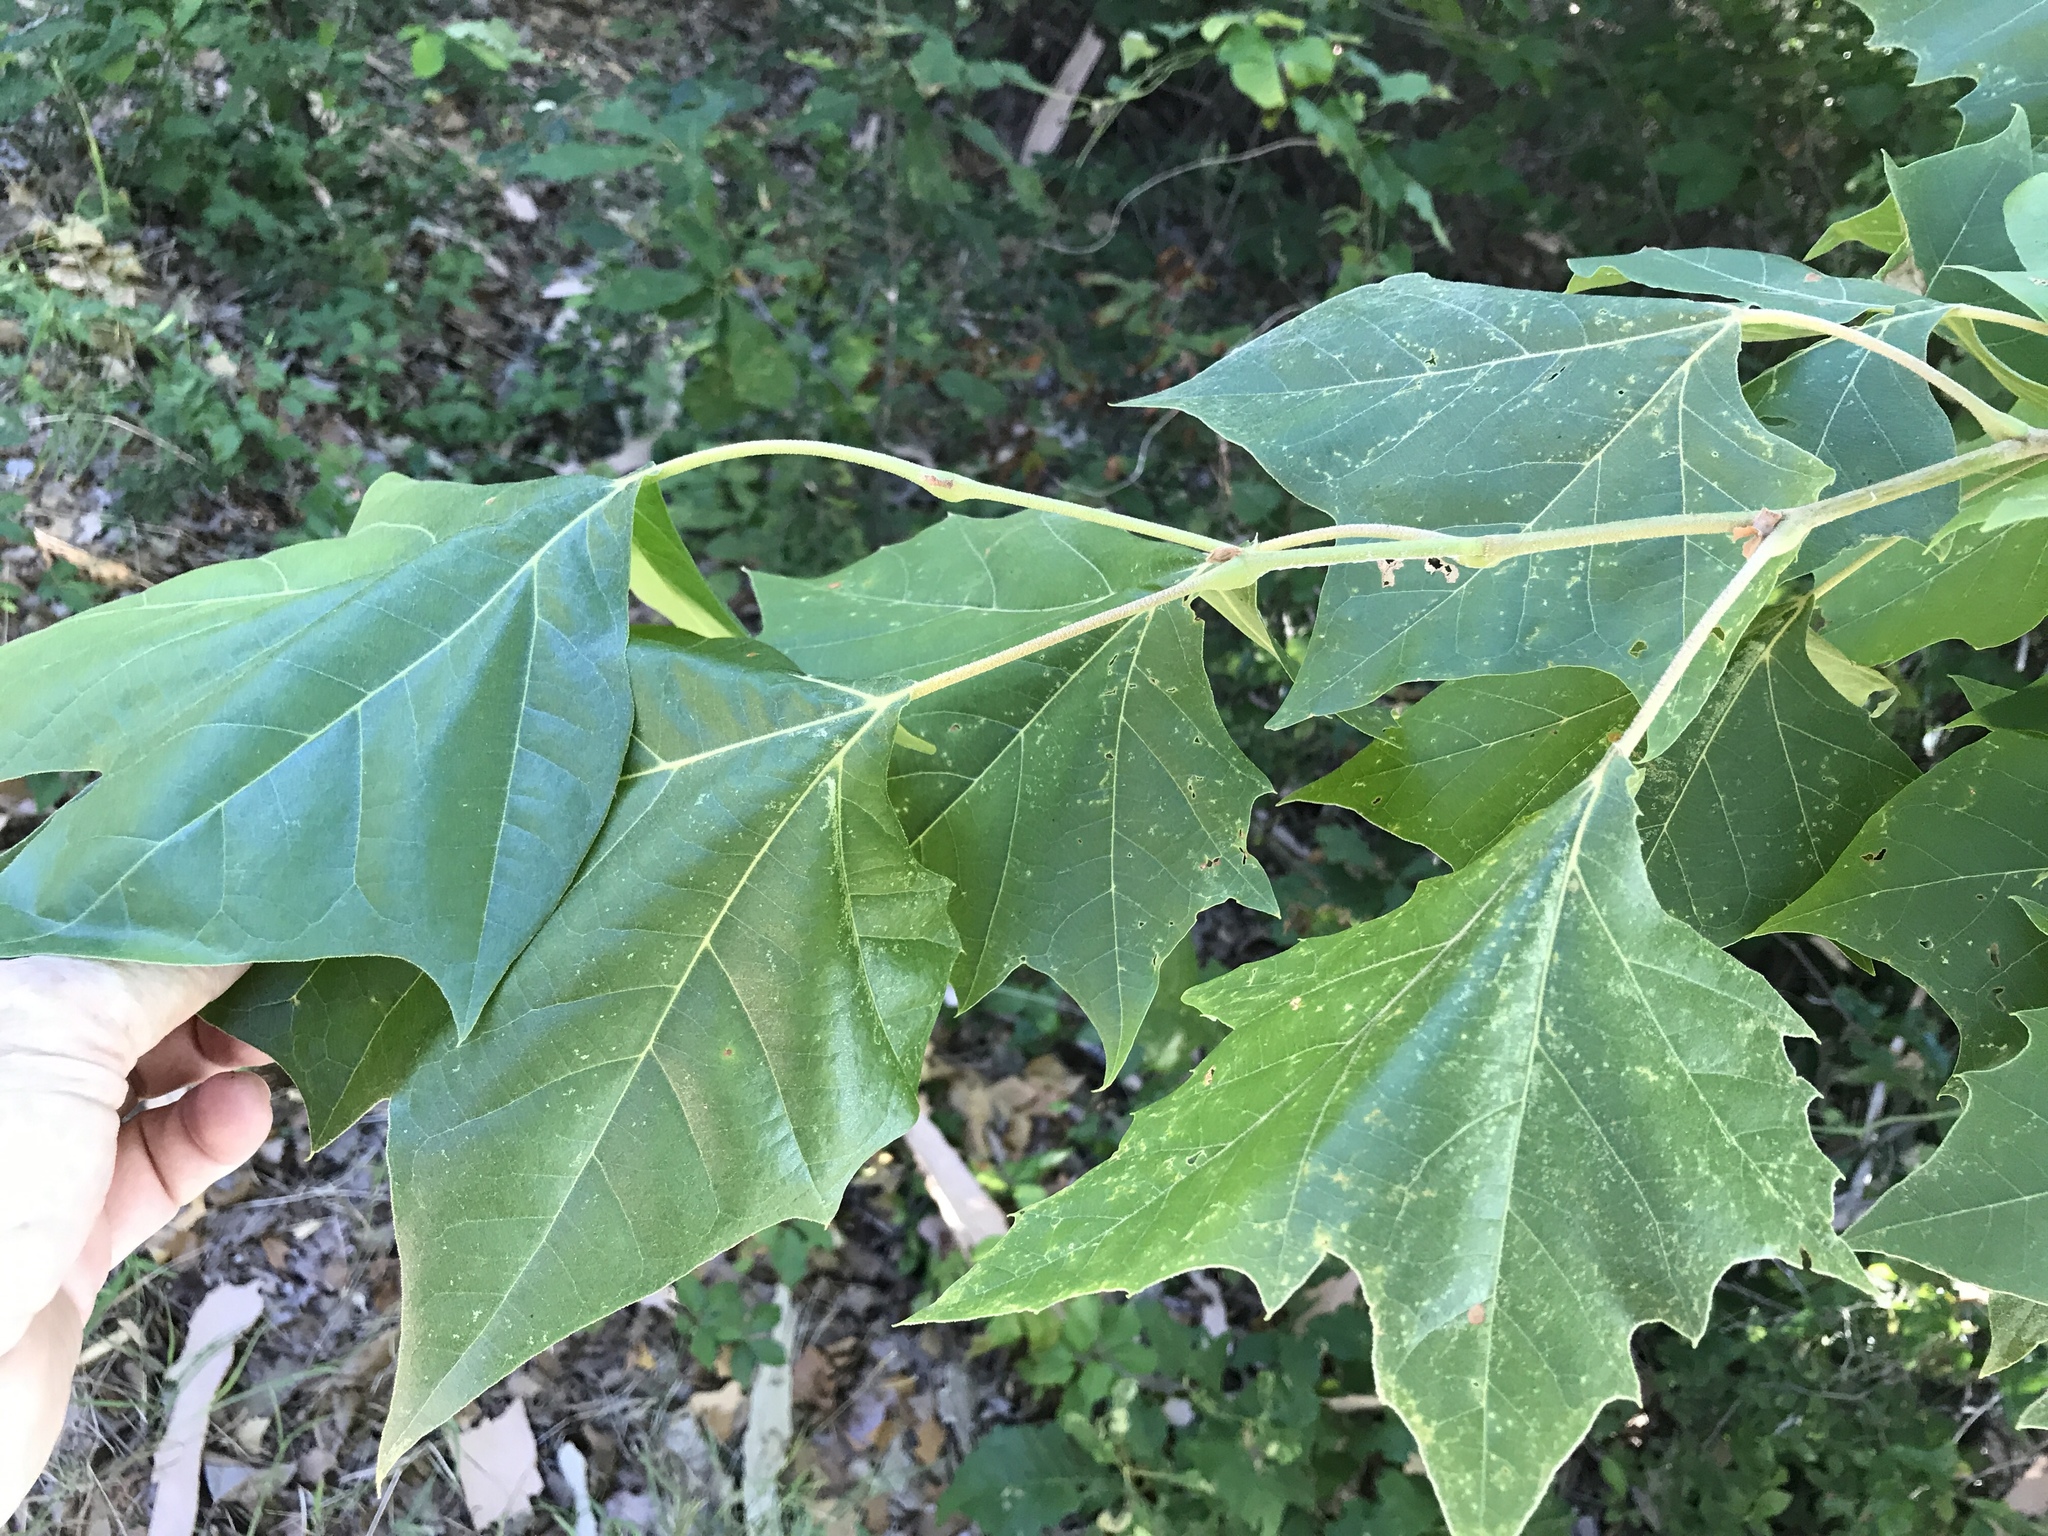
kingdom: Plantae
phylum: Tracheophyta
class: Magnoliopsida
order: Proteales
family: Platanaceae
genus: Platanus
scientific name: Platanus occidentalis
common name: American sycamore
